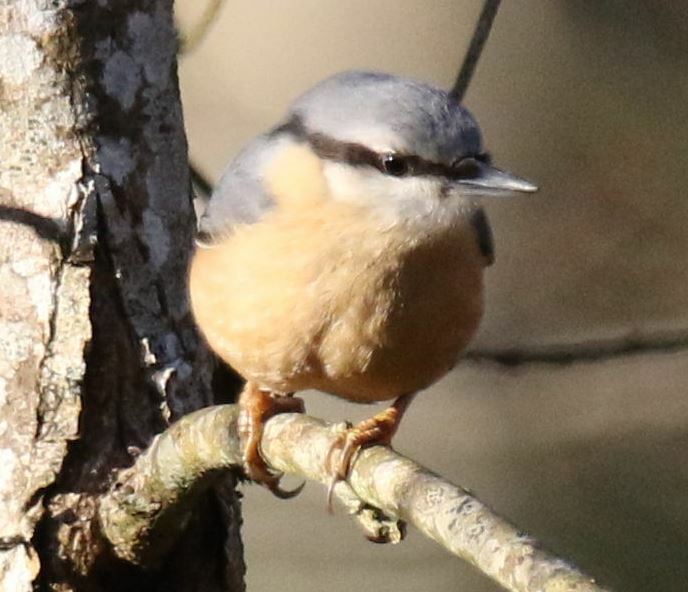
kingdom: Animalia
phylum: Chordata
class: Aves
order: Passeriformes
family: Sittidae
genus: Sitta
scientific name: Sitta europaea
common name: Eurasian nuthatch
